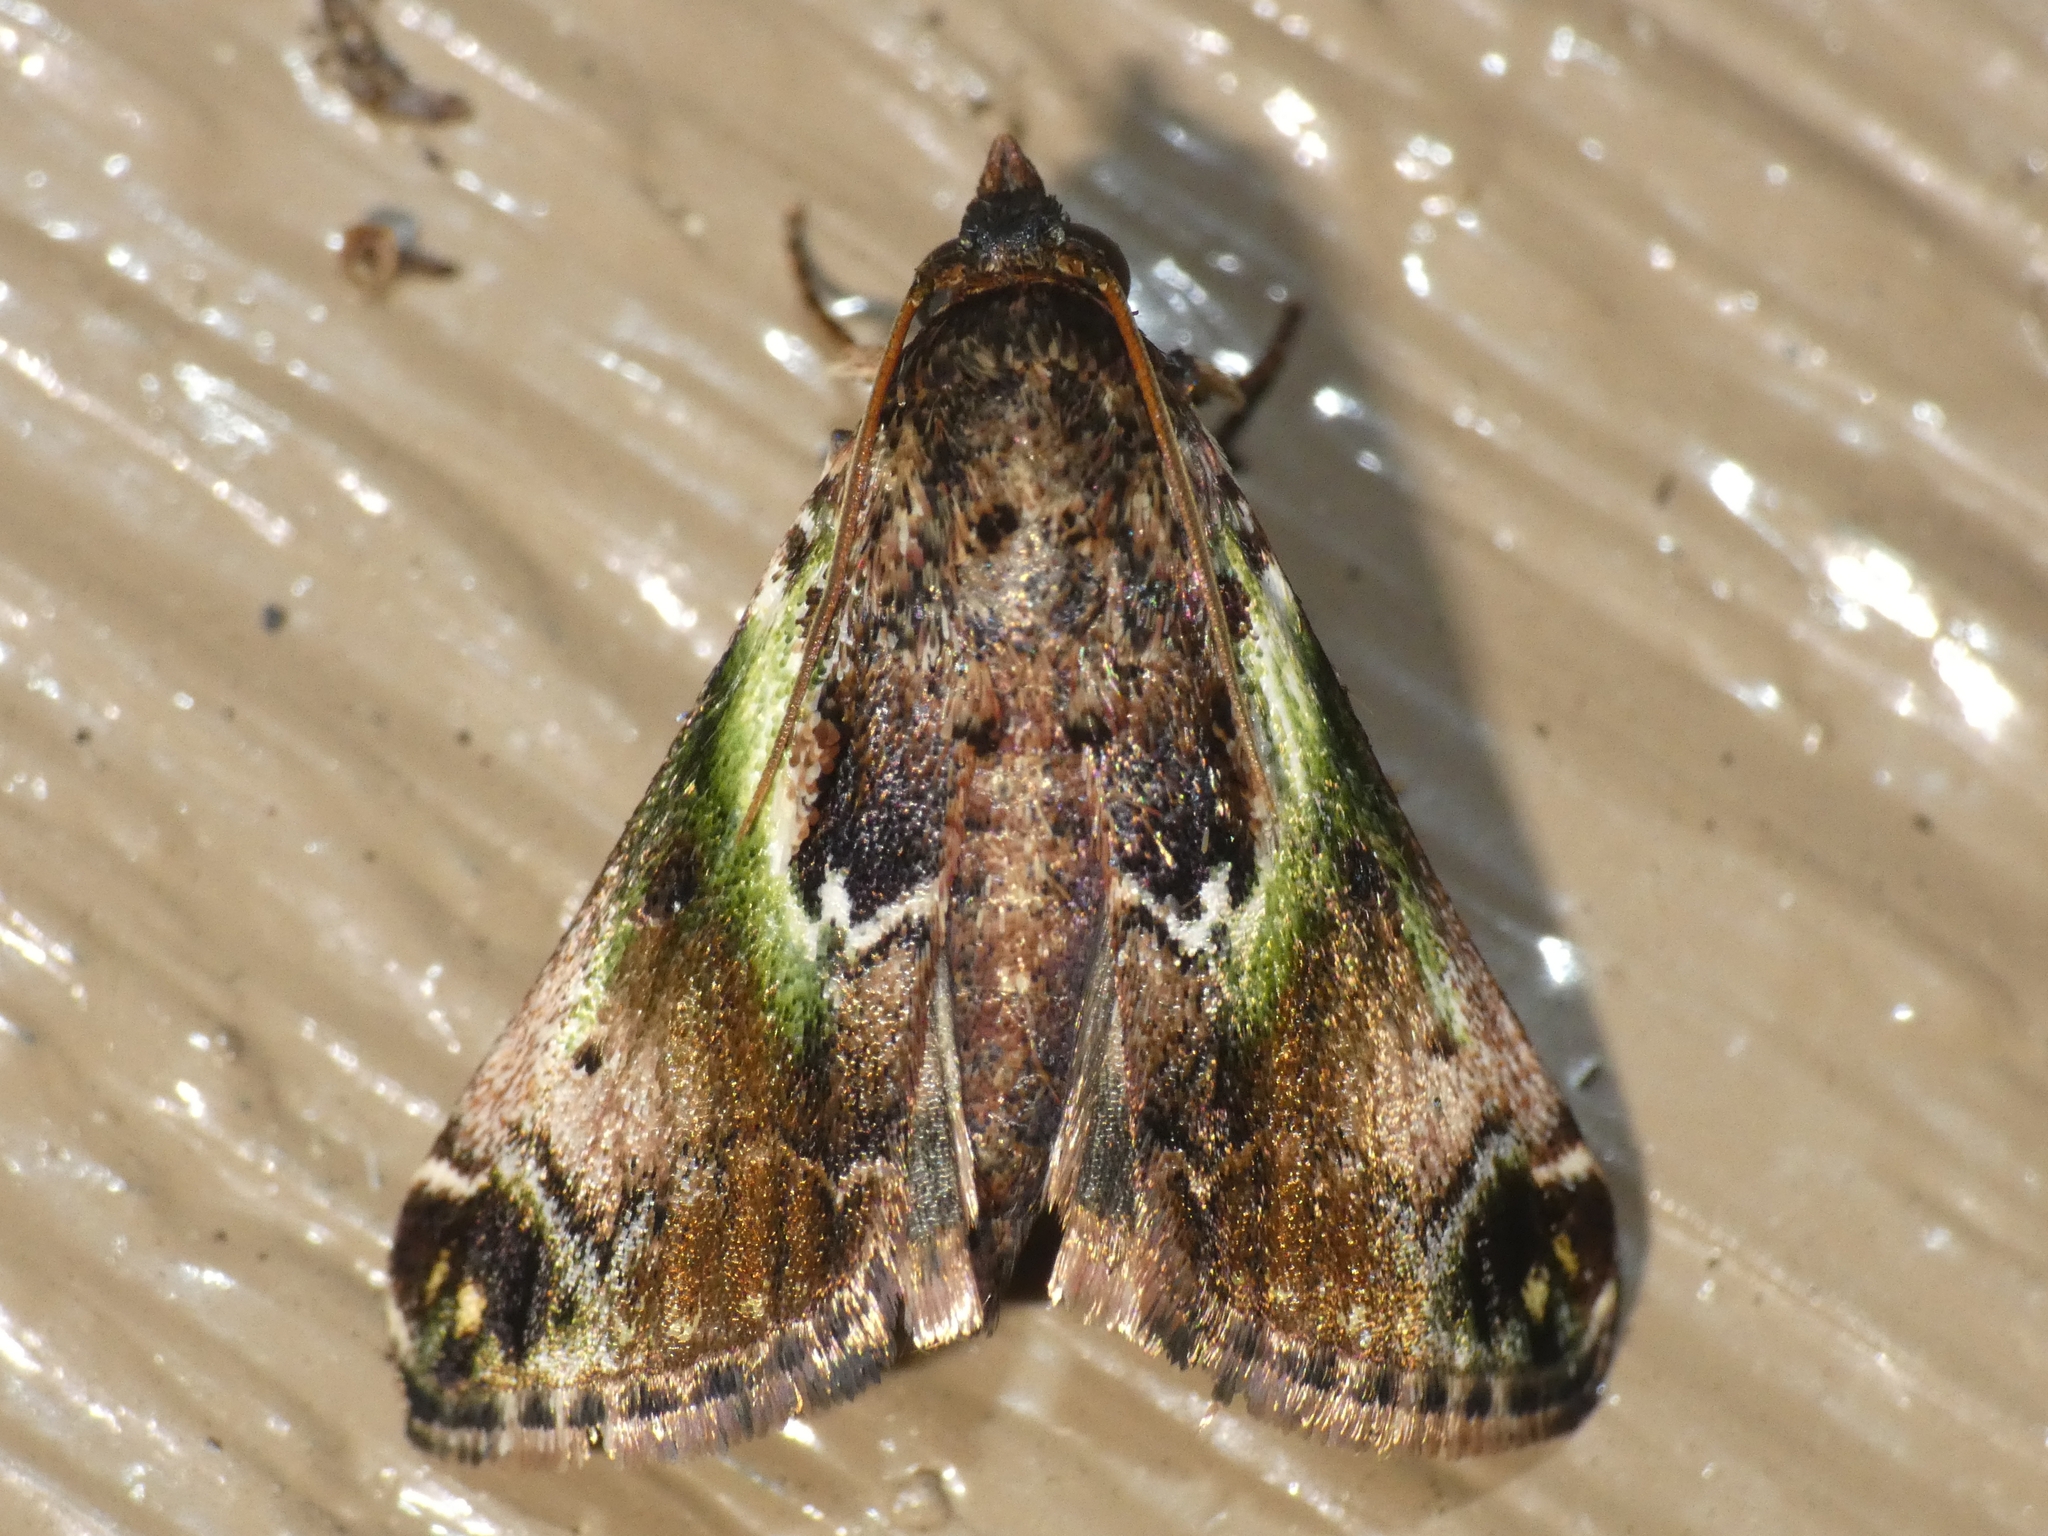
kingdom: Animalia
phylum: Arthropoda
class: Insecta
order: Lepidoptera
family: Pyralidae
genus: Doddiana
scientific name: Doddiana callizona
